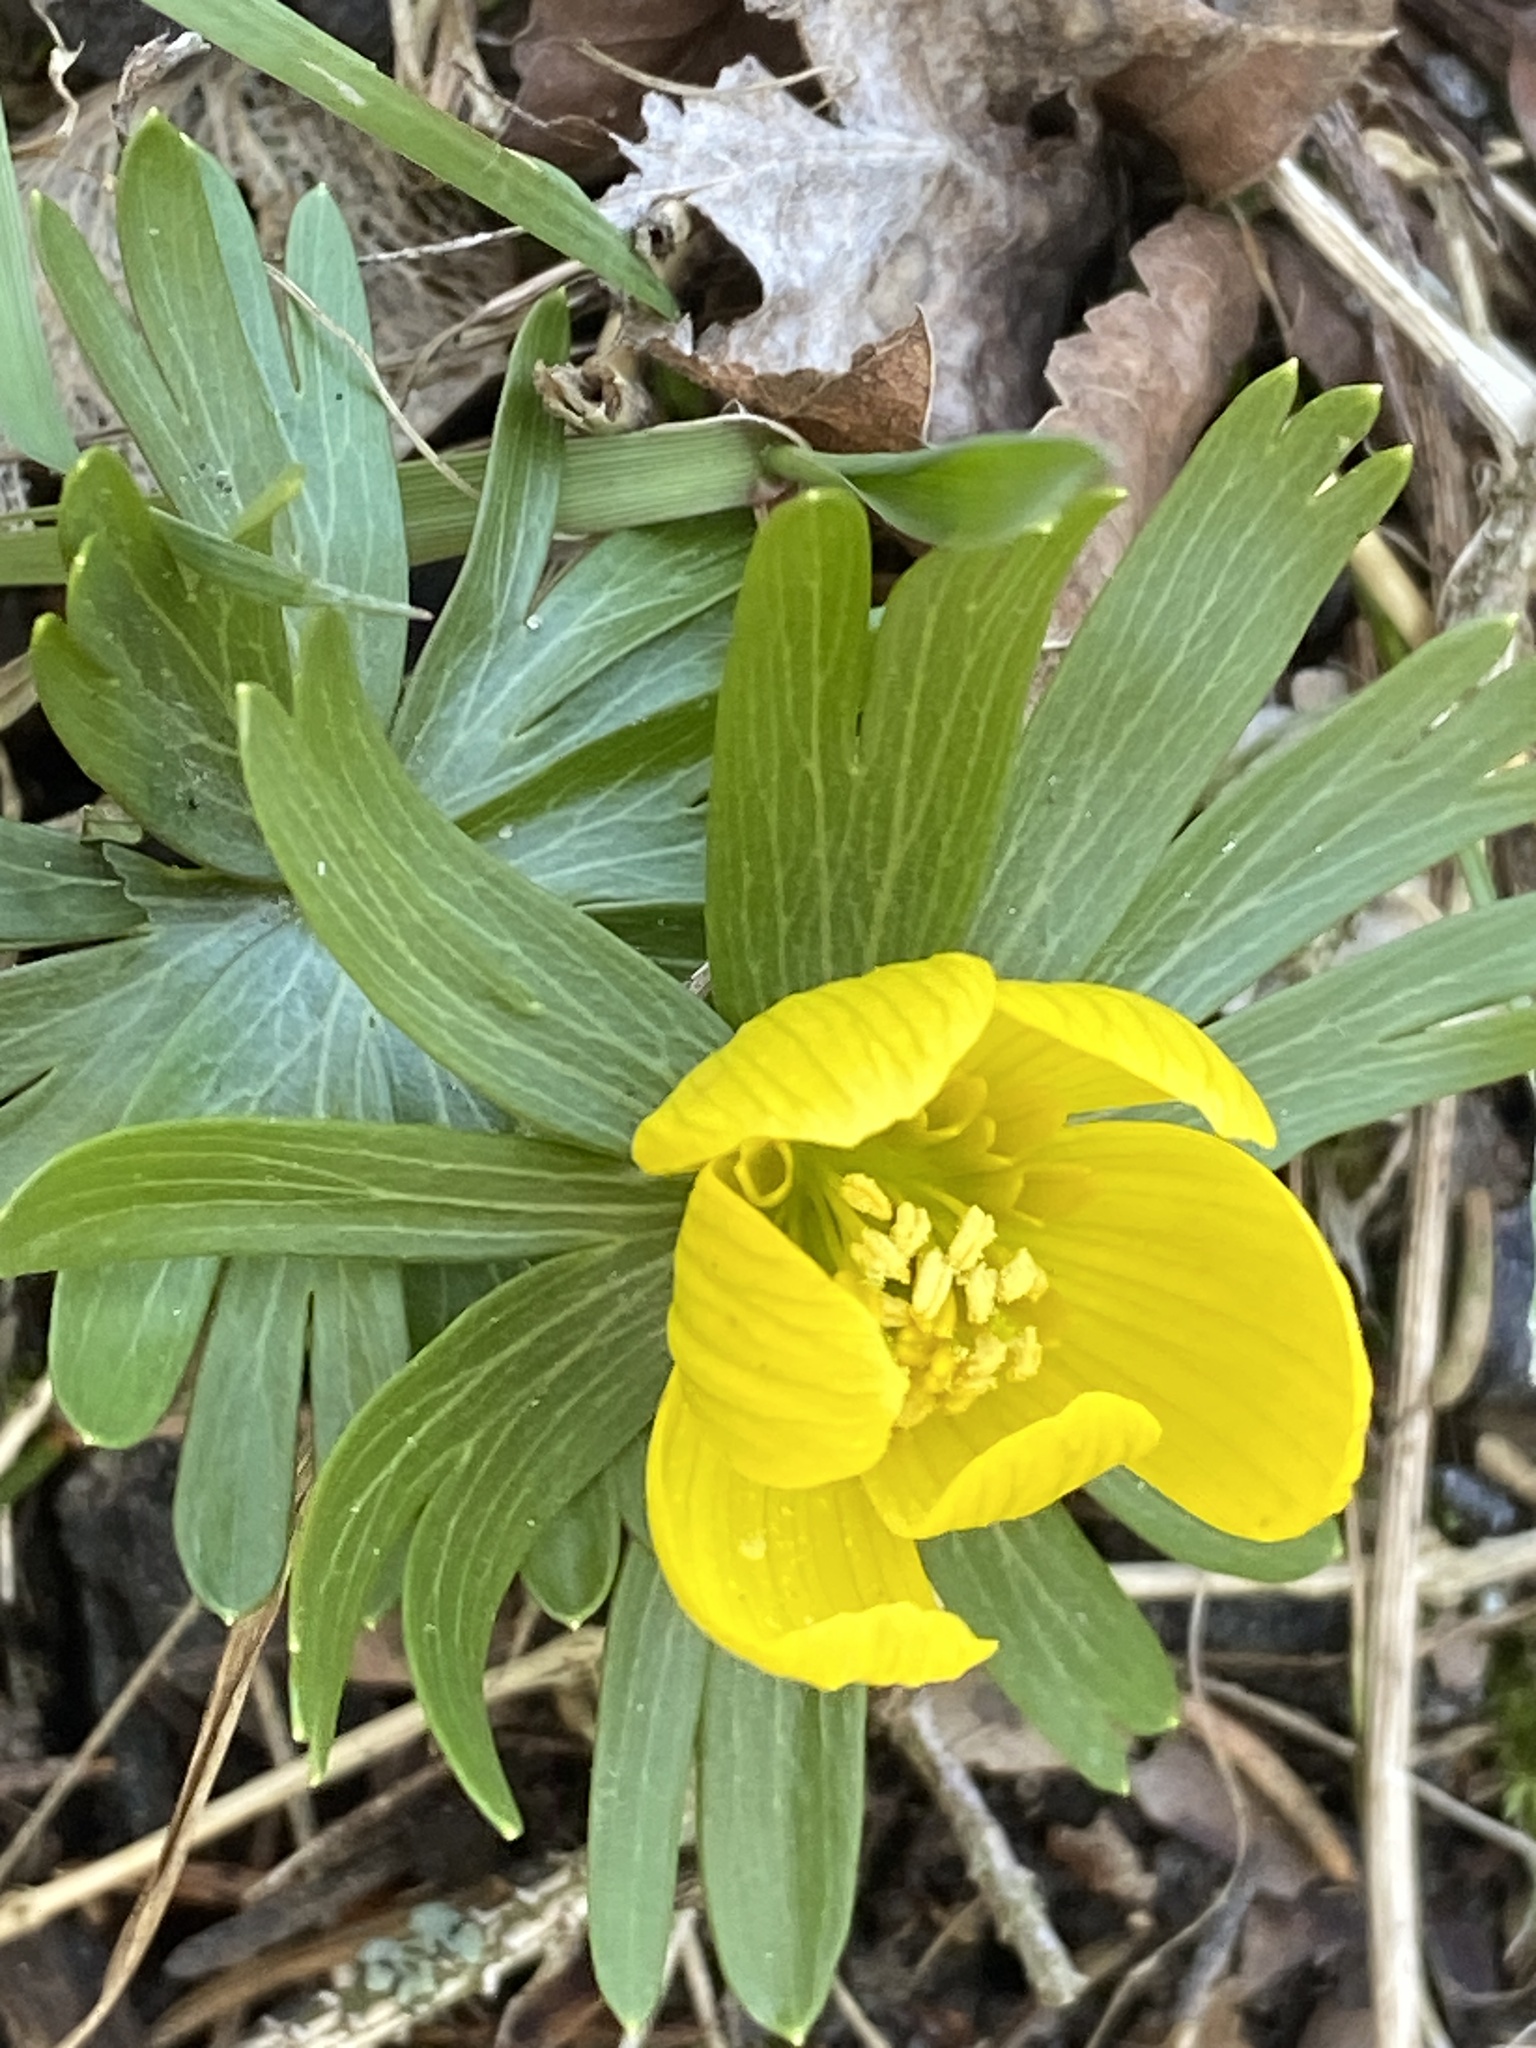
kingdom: Plantae
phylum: Tracheophyta
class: Magnoliopsida
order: Ranunculales
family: Ranunculaceae
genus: Eranthis
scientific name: Eranthis hyemalis
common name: Winter aconite
